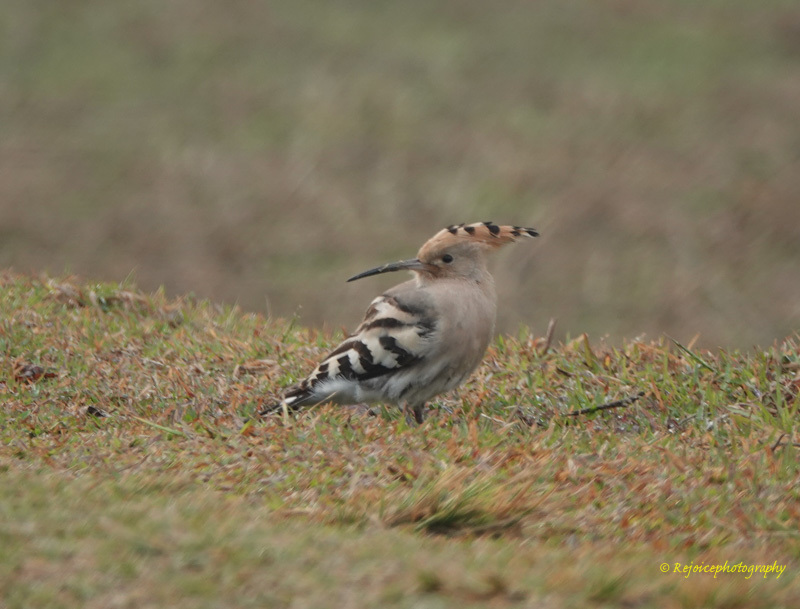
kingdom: Animalia
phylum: Chordata
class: Aves
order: Bucerotiformes
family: Upupidae
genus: Upupa
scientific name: Upupa epops
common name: Eurasian hoopoe
